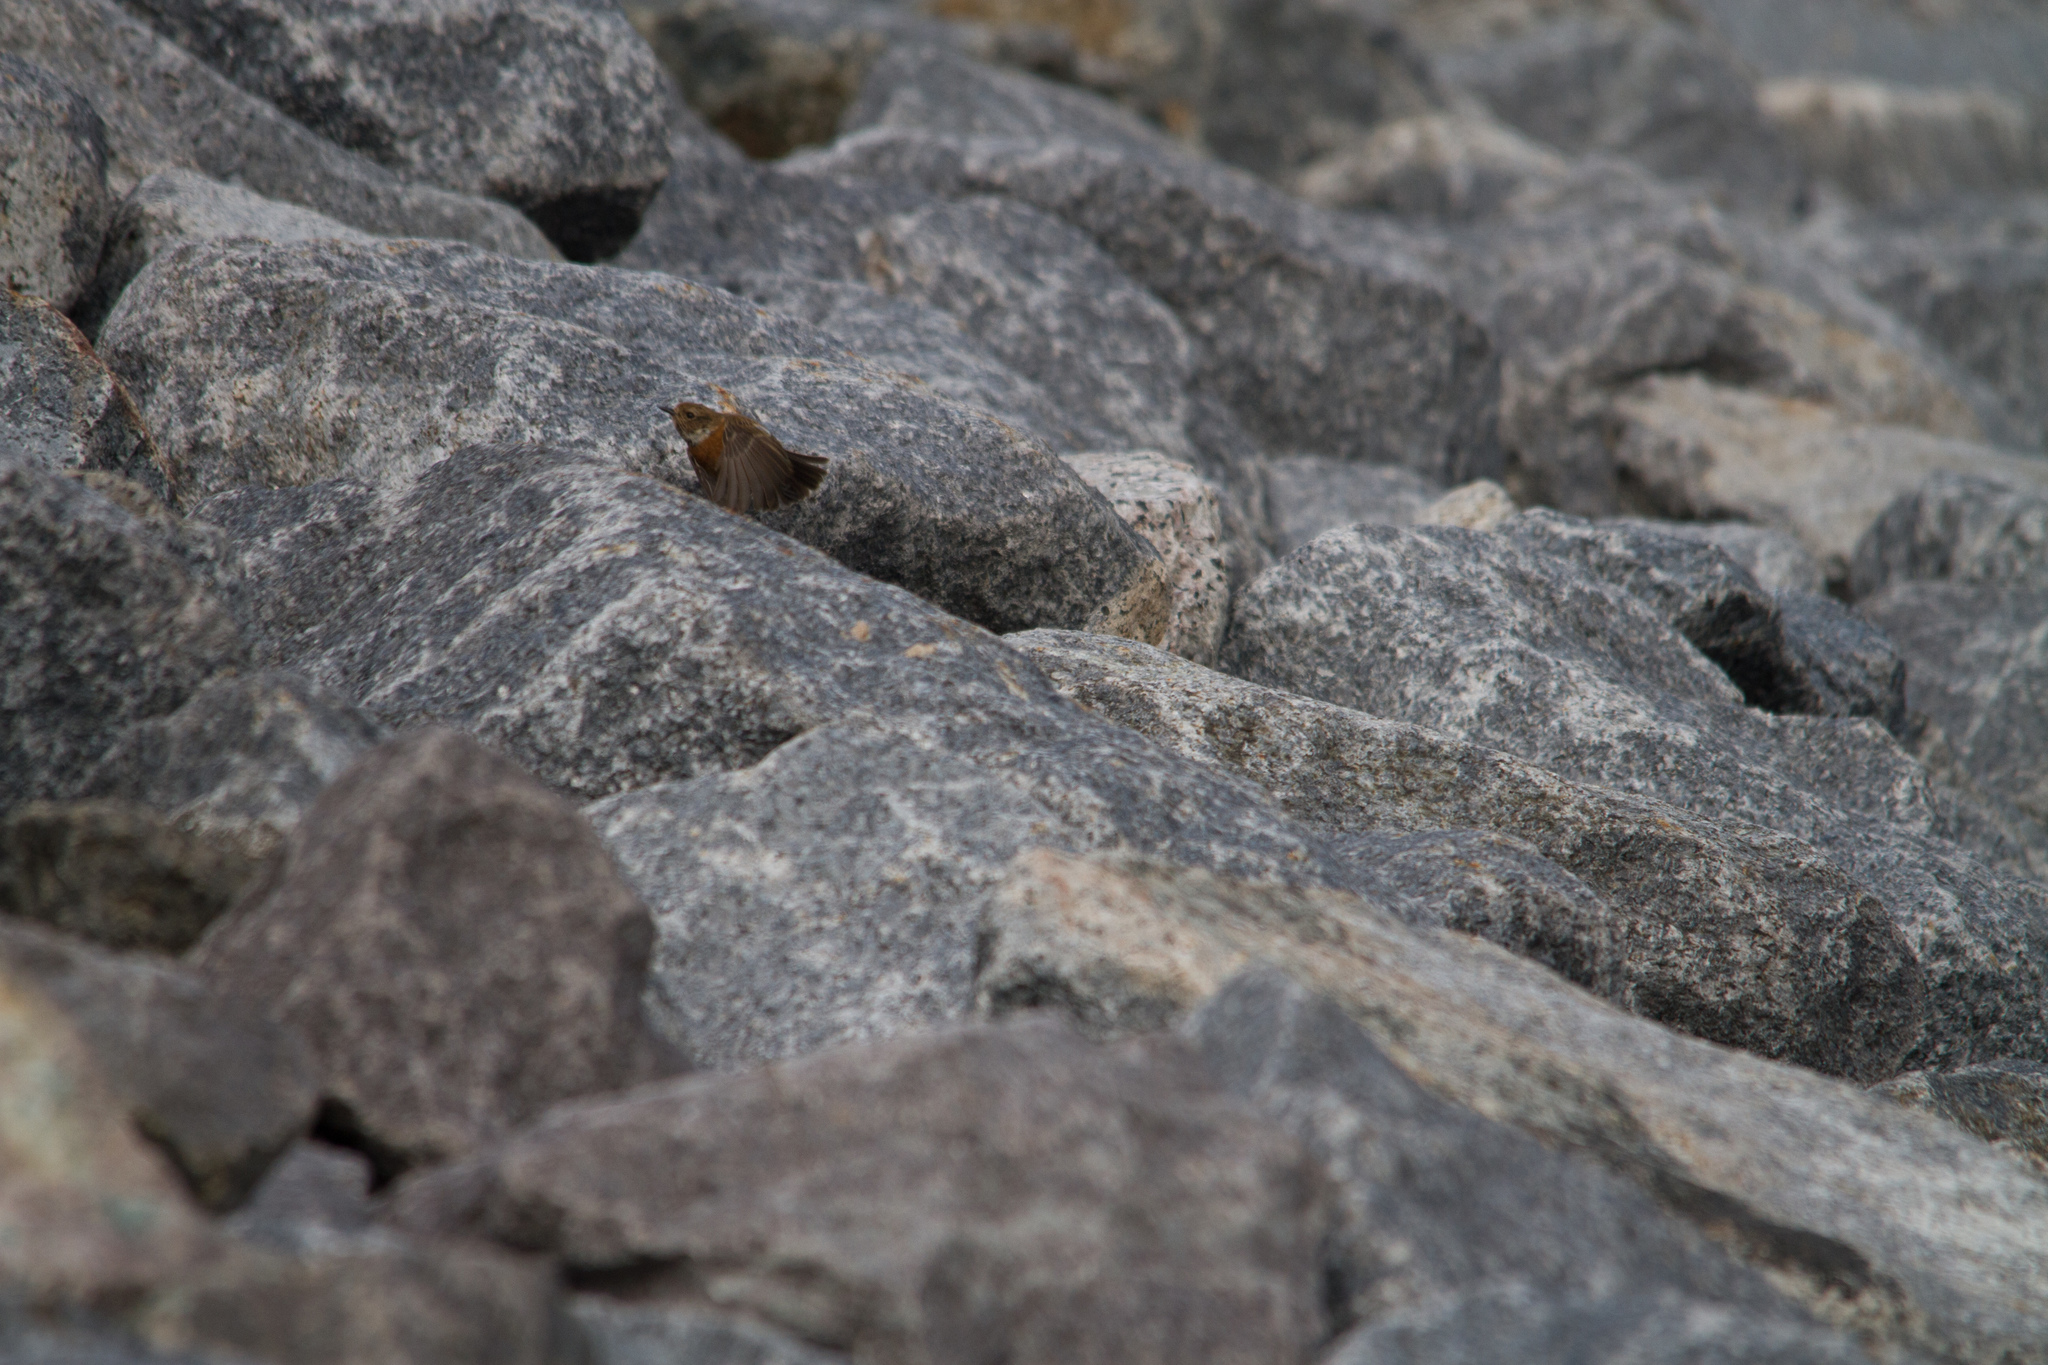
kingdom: Animalia
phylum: Chordata
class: Aves
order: Passeriformes
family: Muscicapidae
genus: Saxicola
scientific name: Saxicola rubicola
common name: European stonechat
